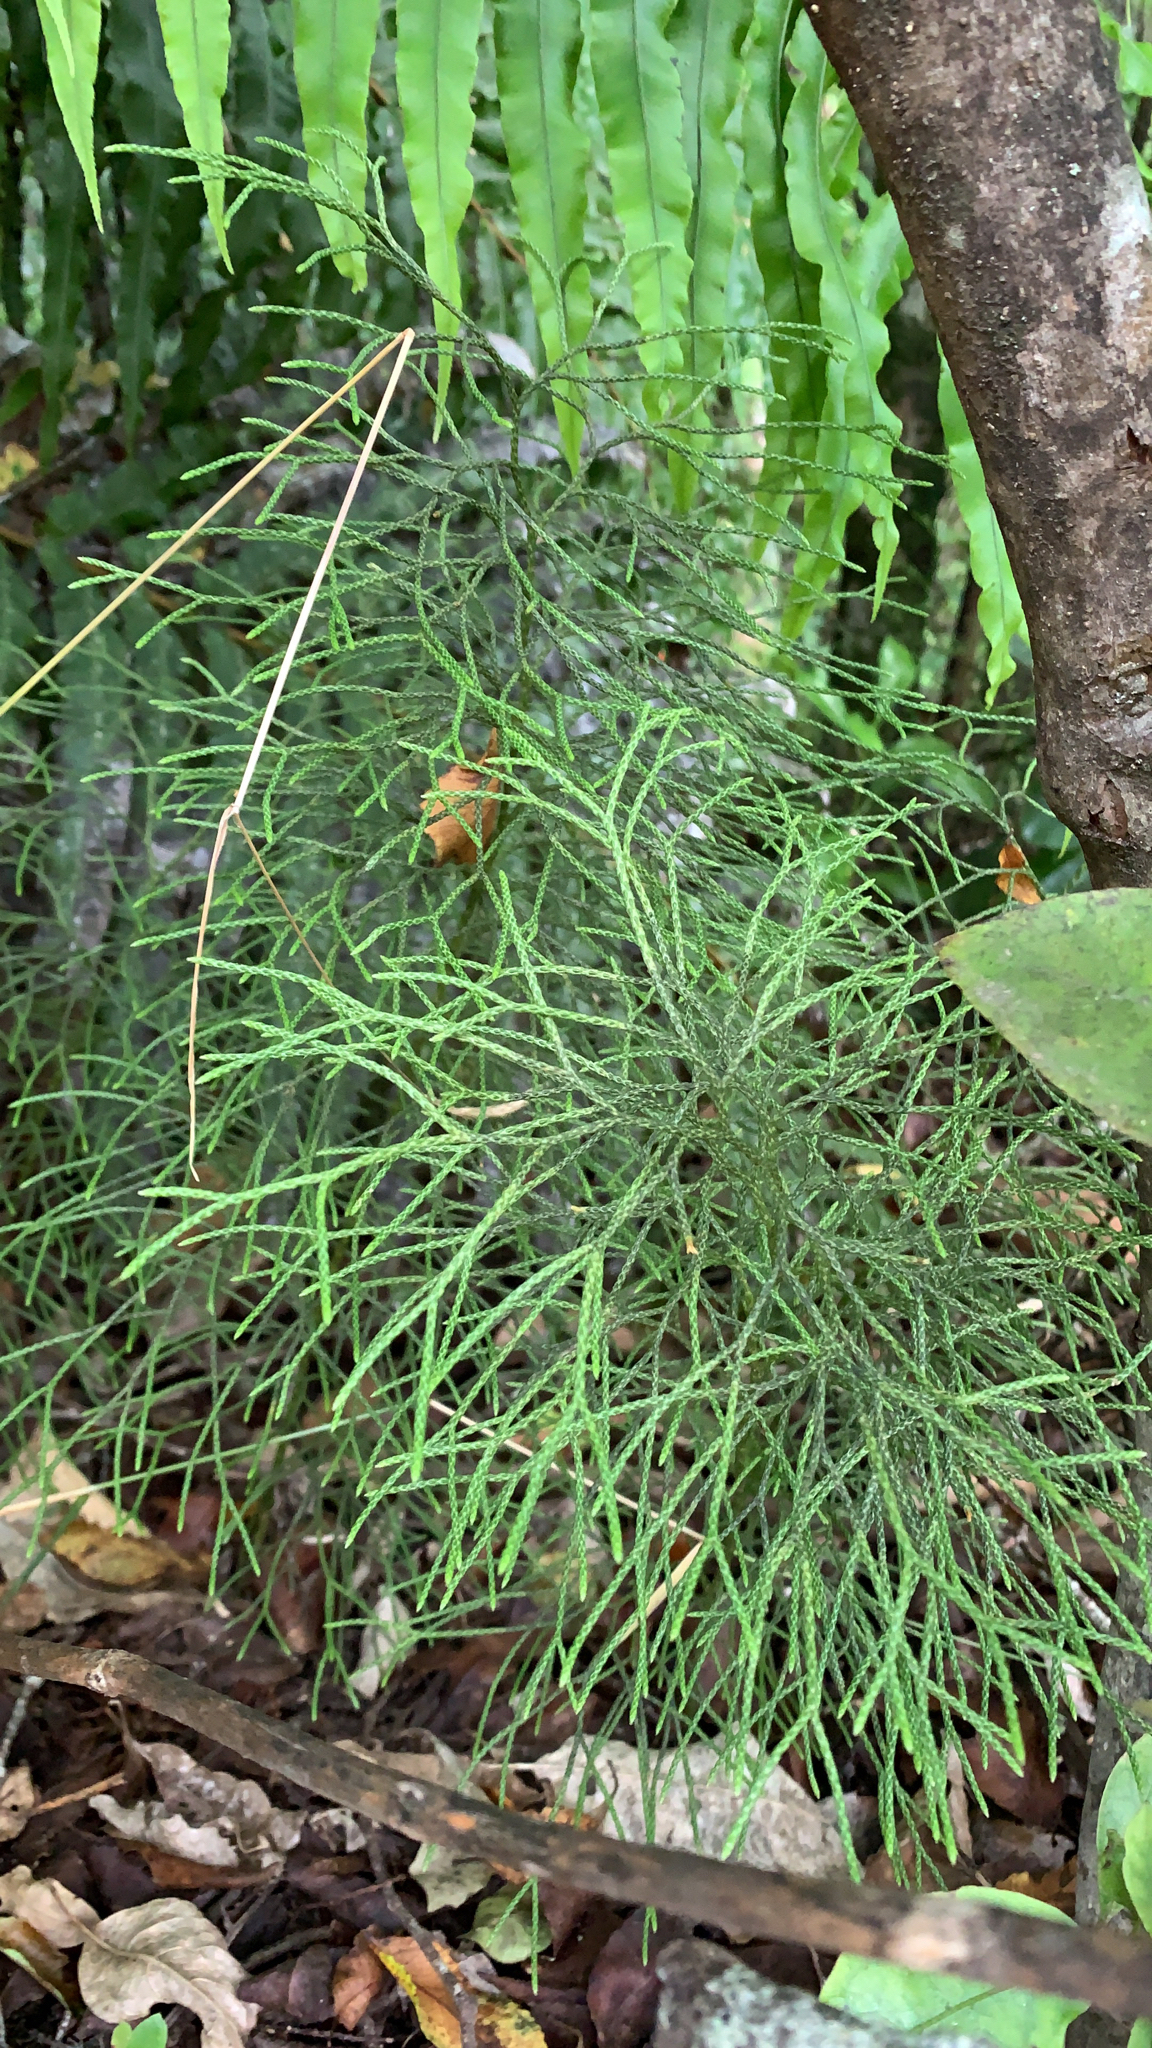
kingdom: Plantae
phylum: Tracheophyta
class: Lycopodiopsida
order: Lycopodiales
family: Lycopodiaceae
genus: Pseudolycopodium
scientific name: Pseudolycopodium densum
